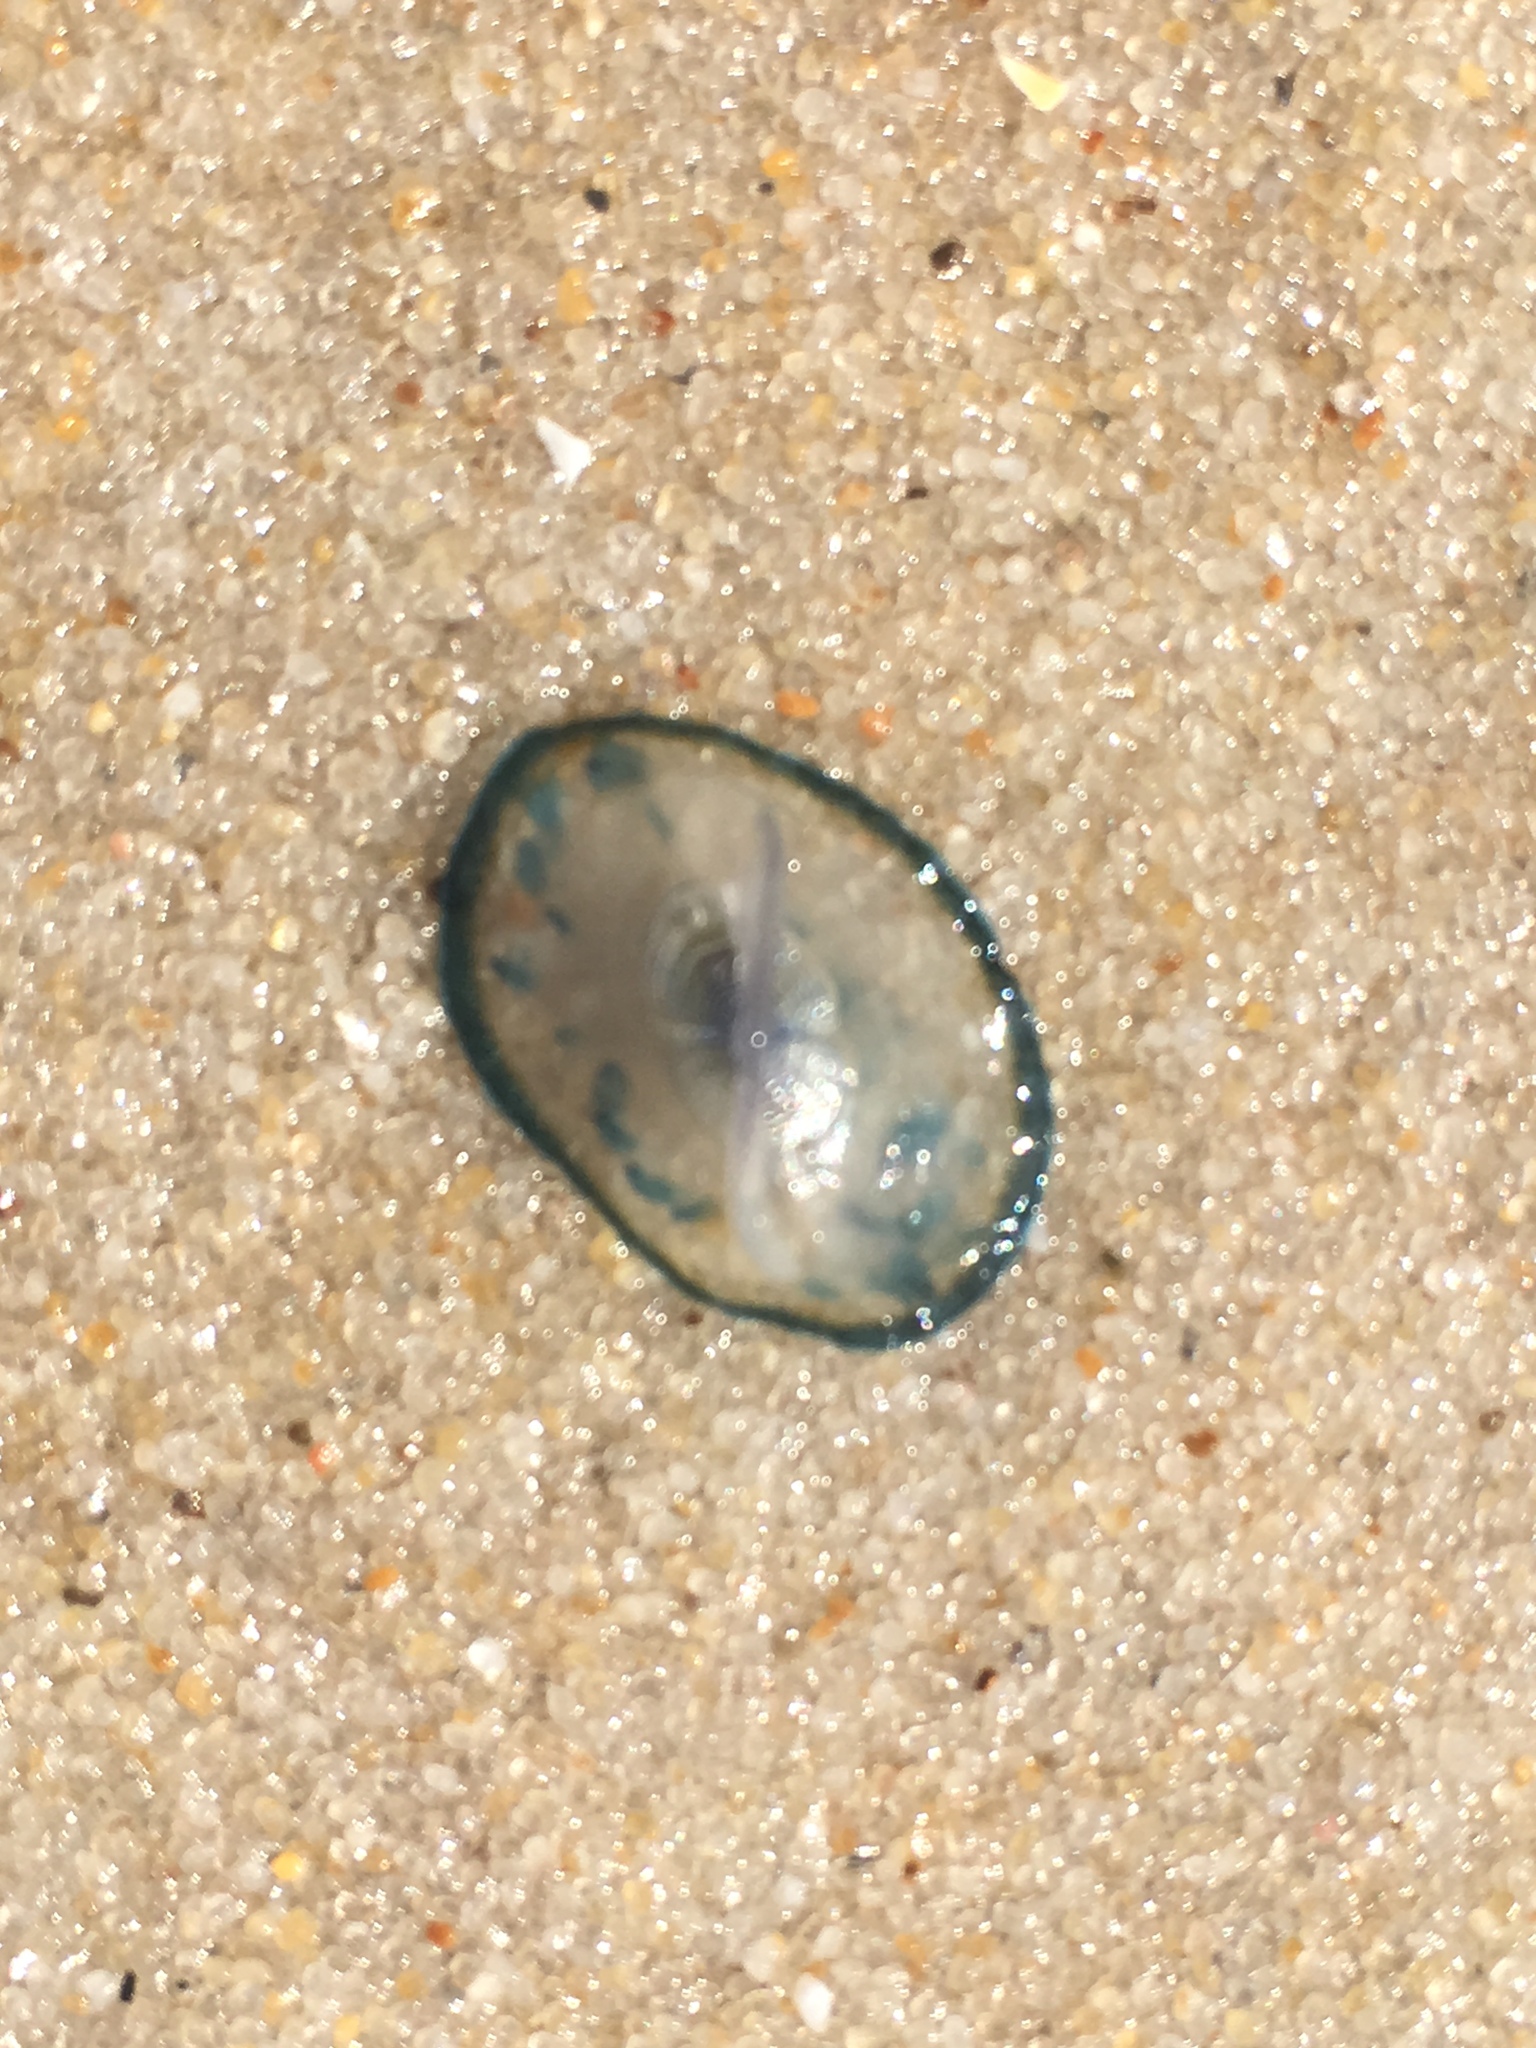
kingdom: Animalia
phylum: Cnidaria
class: Hydrozoa
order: Anthoathecata
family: Porpitidae
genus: Velella
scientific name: Velella velella
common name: By-the-wind-sailor
